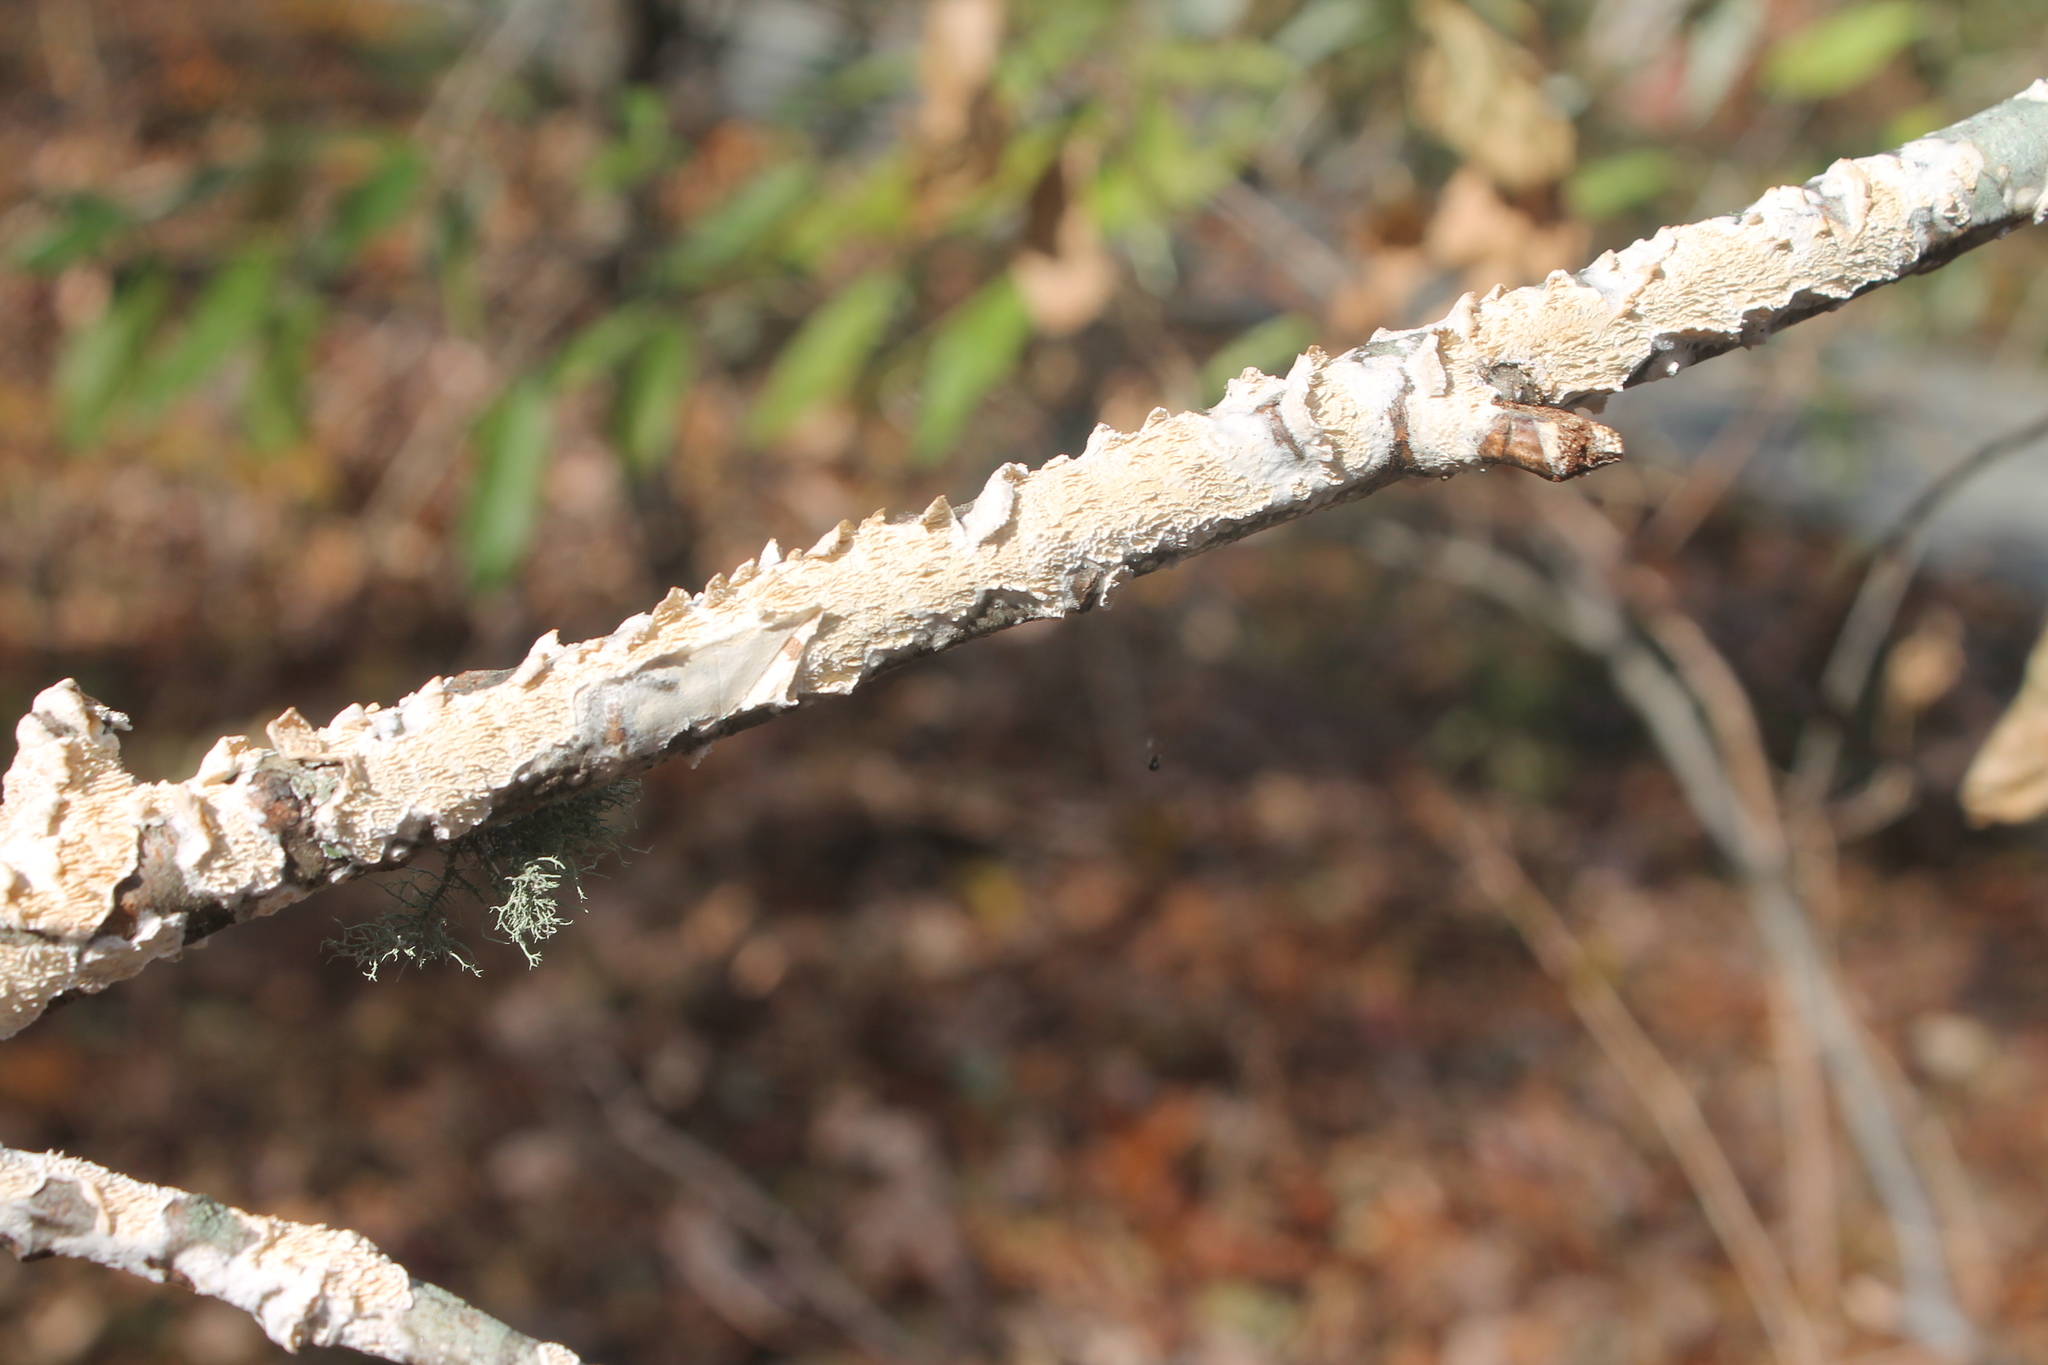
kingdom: Fungi
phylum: Basidiomycota
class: Agaricomycetes
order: Polyporales
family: Irpicaceae
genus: Irpex
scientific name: Irpex lacteus
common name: Milk-white toothed polypore
